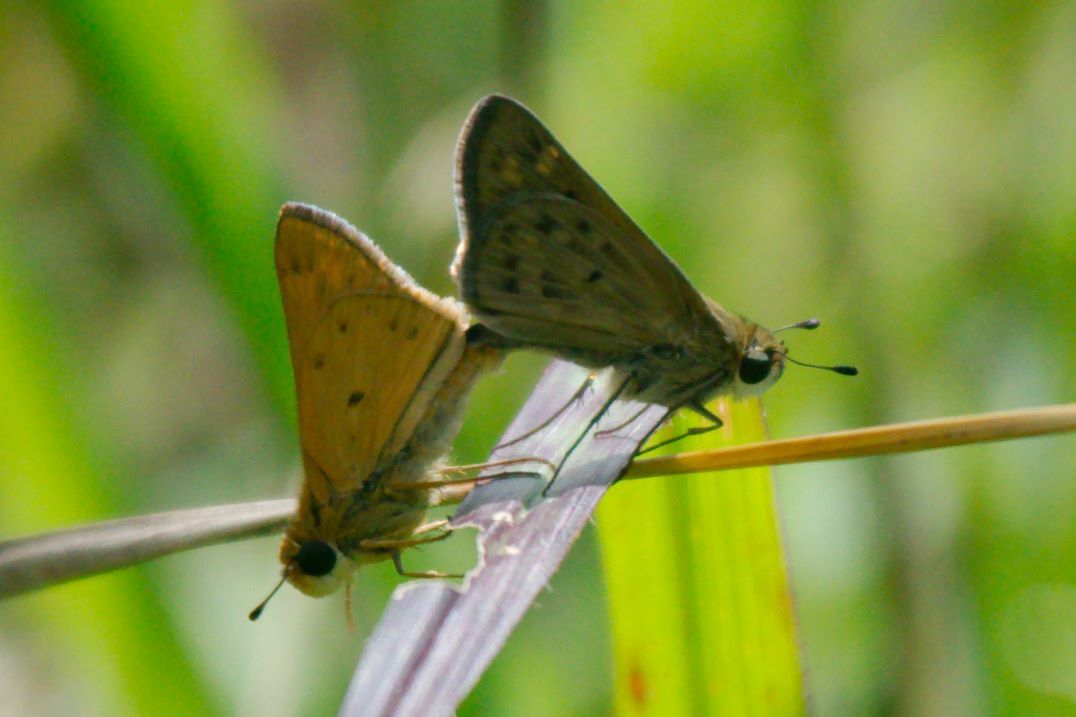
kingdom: Animalia
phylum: Arthropoda
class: Insecta
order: Lepidoptera
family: Hesperiidae
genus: Hylephila
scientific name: Hylephila phyleus
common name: Fiery skipper
